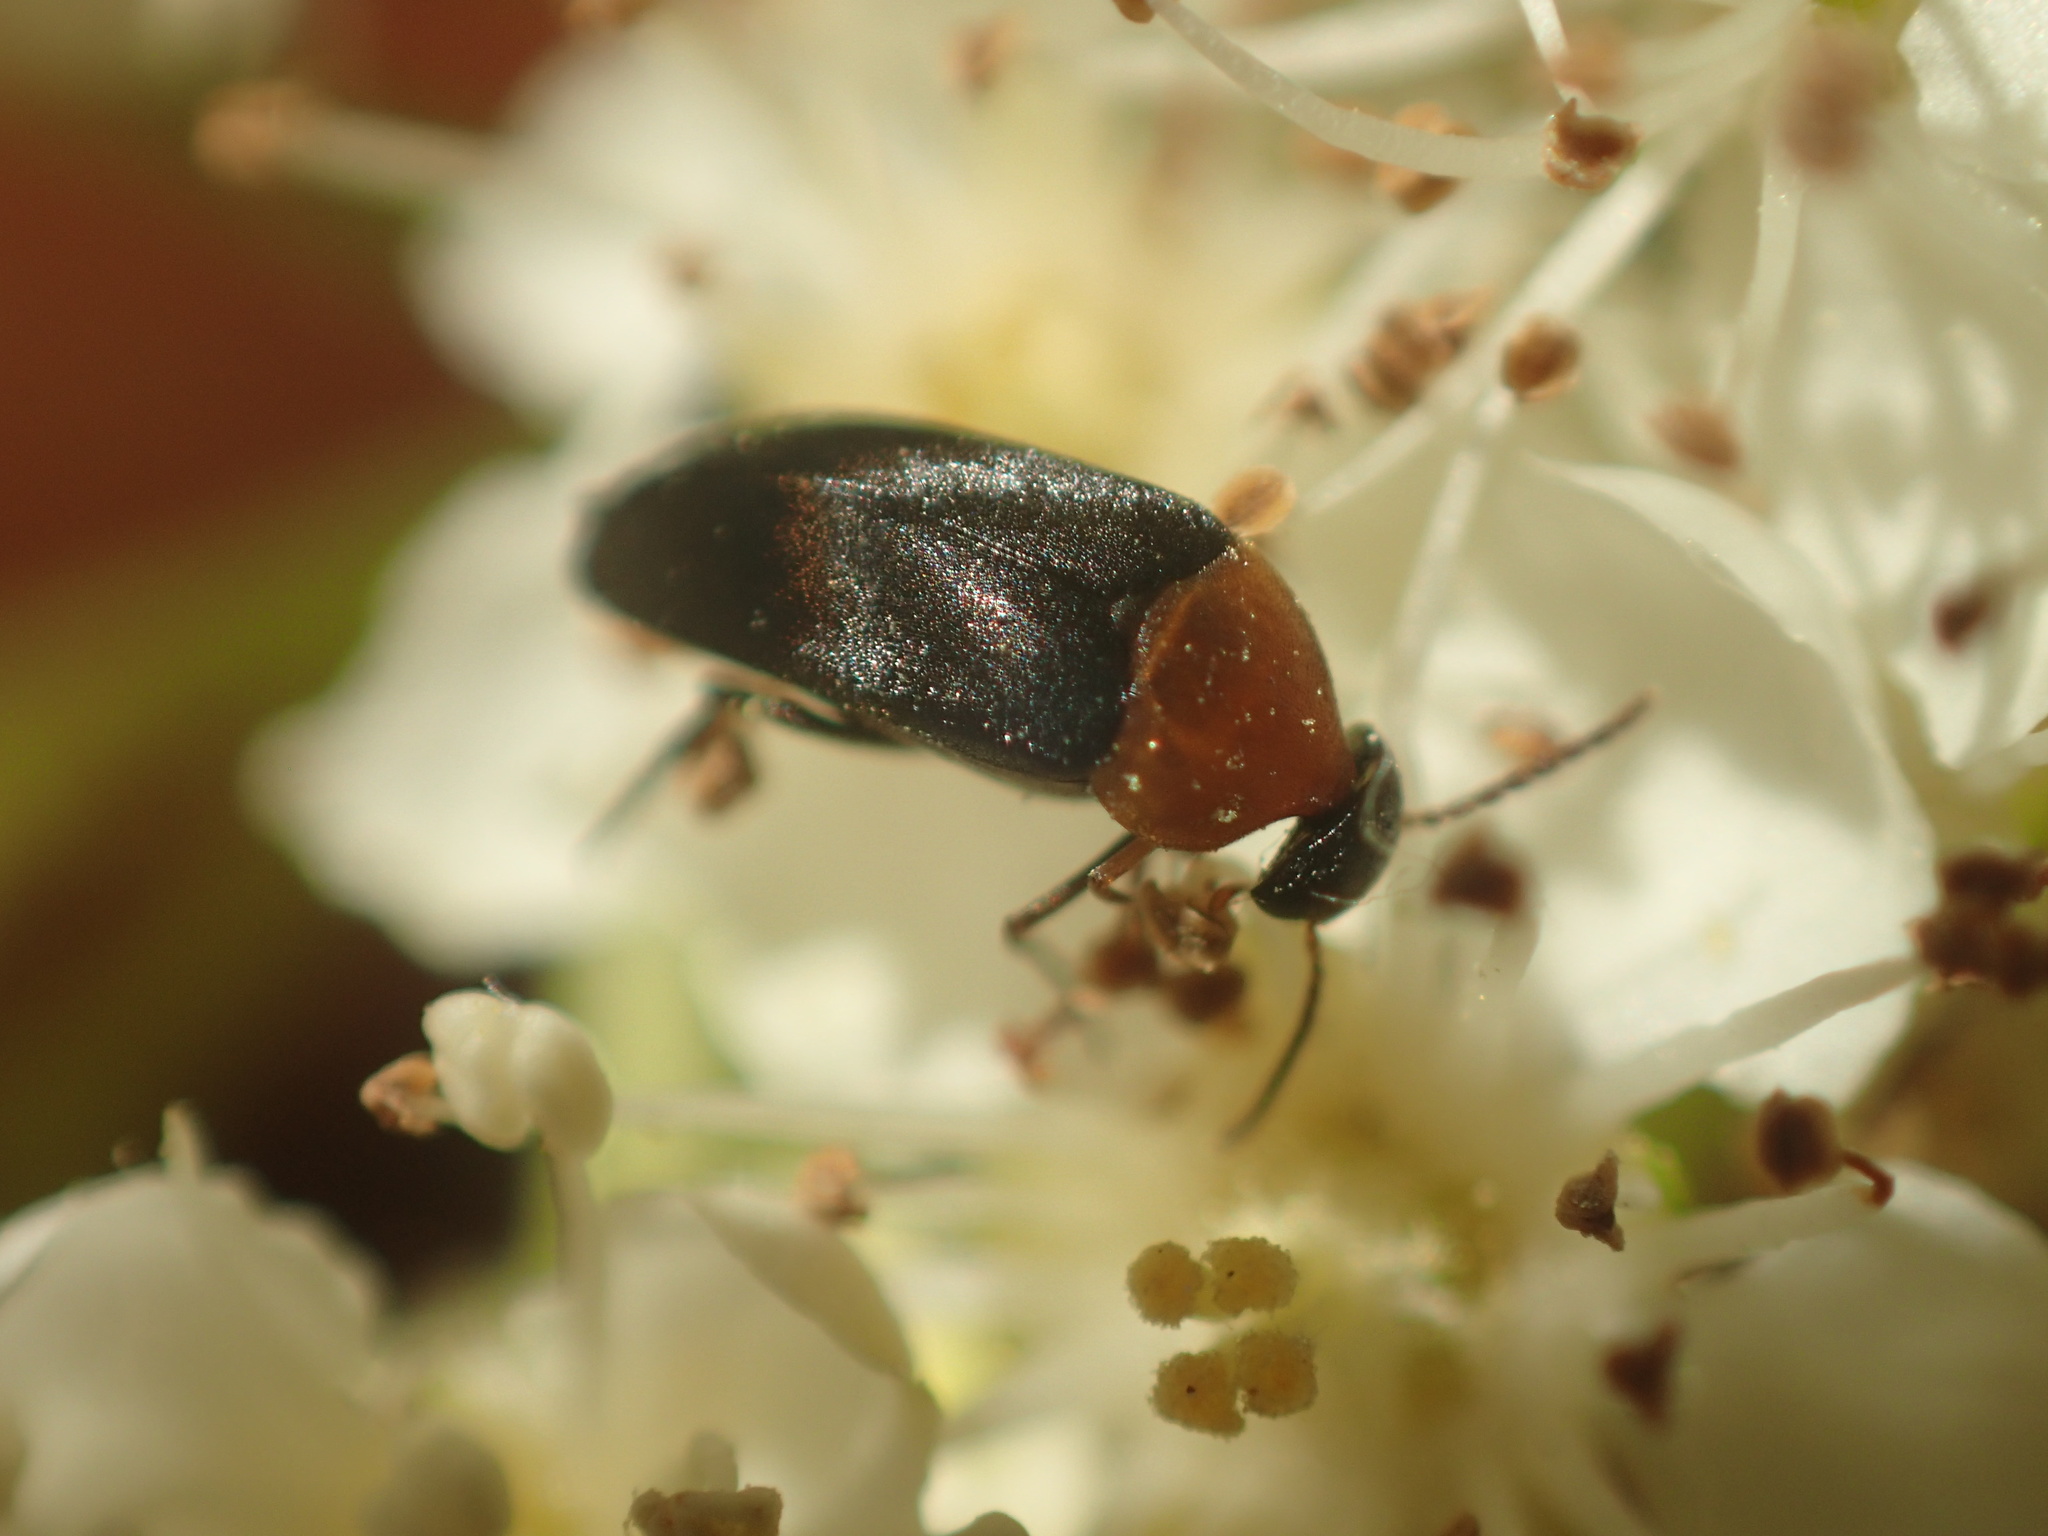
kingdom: Animalia
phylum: Arthropoda
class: Insecta
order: Coleoptera
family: Mordellidae
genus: Mordellochroa
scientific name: Mordellochroa abdominalis
